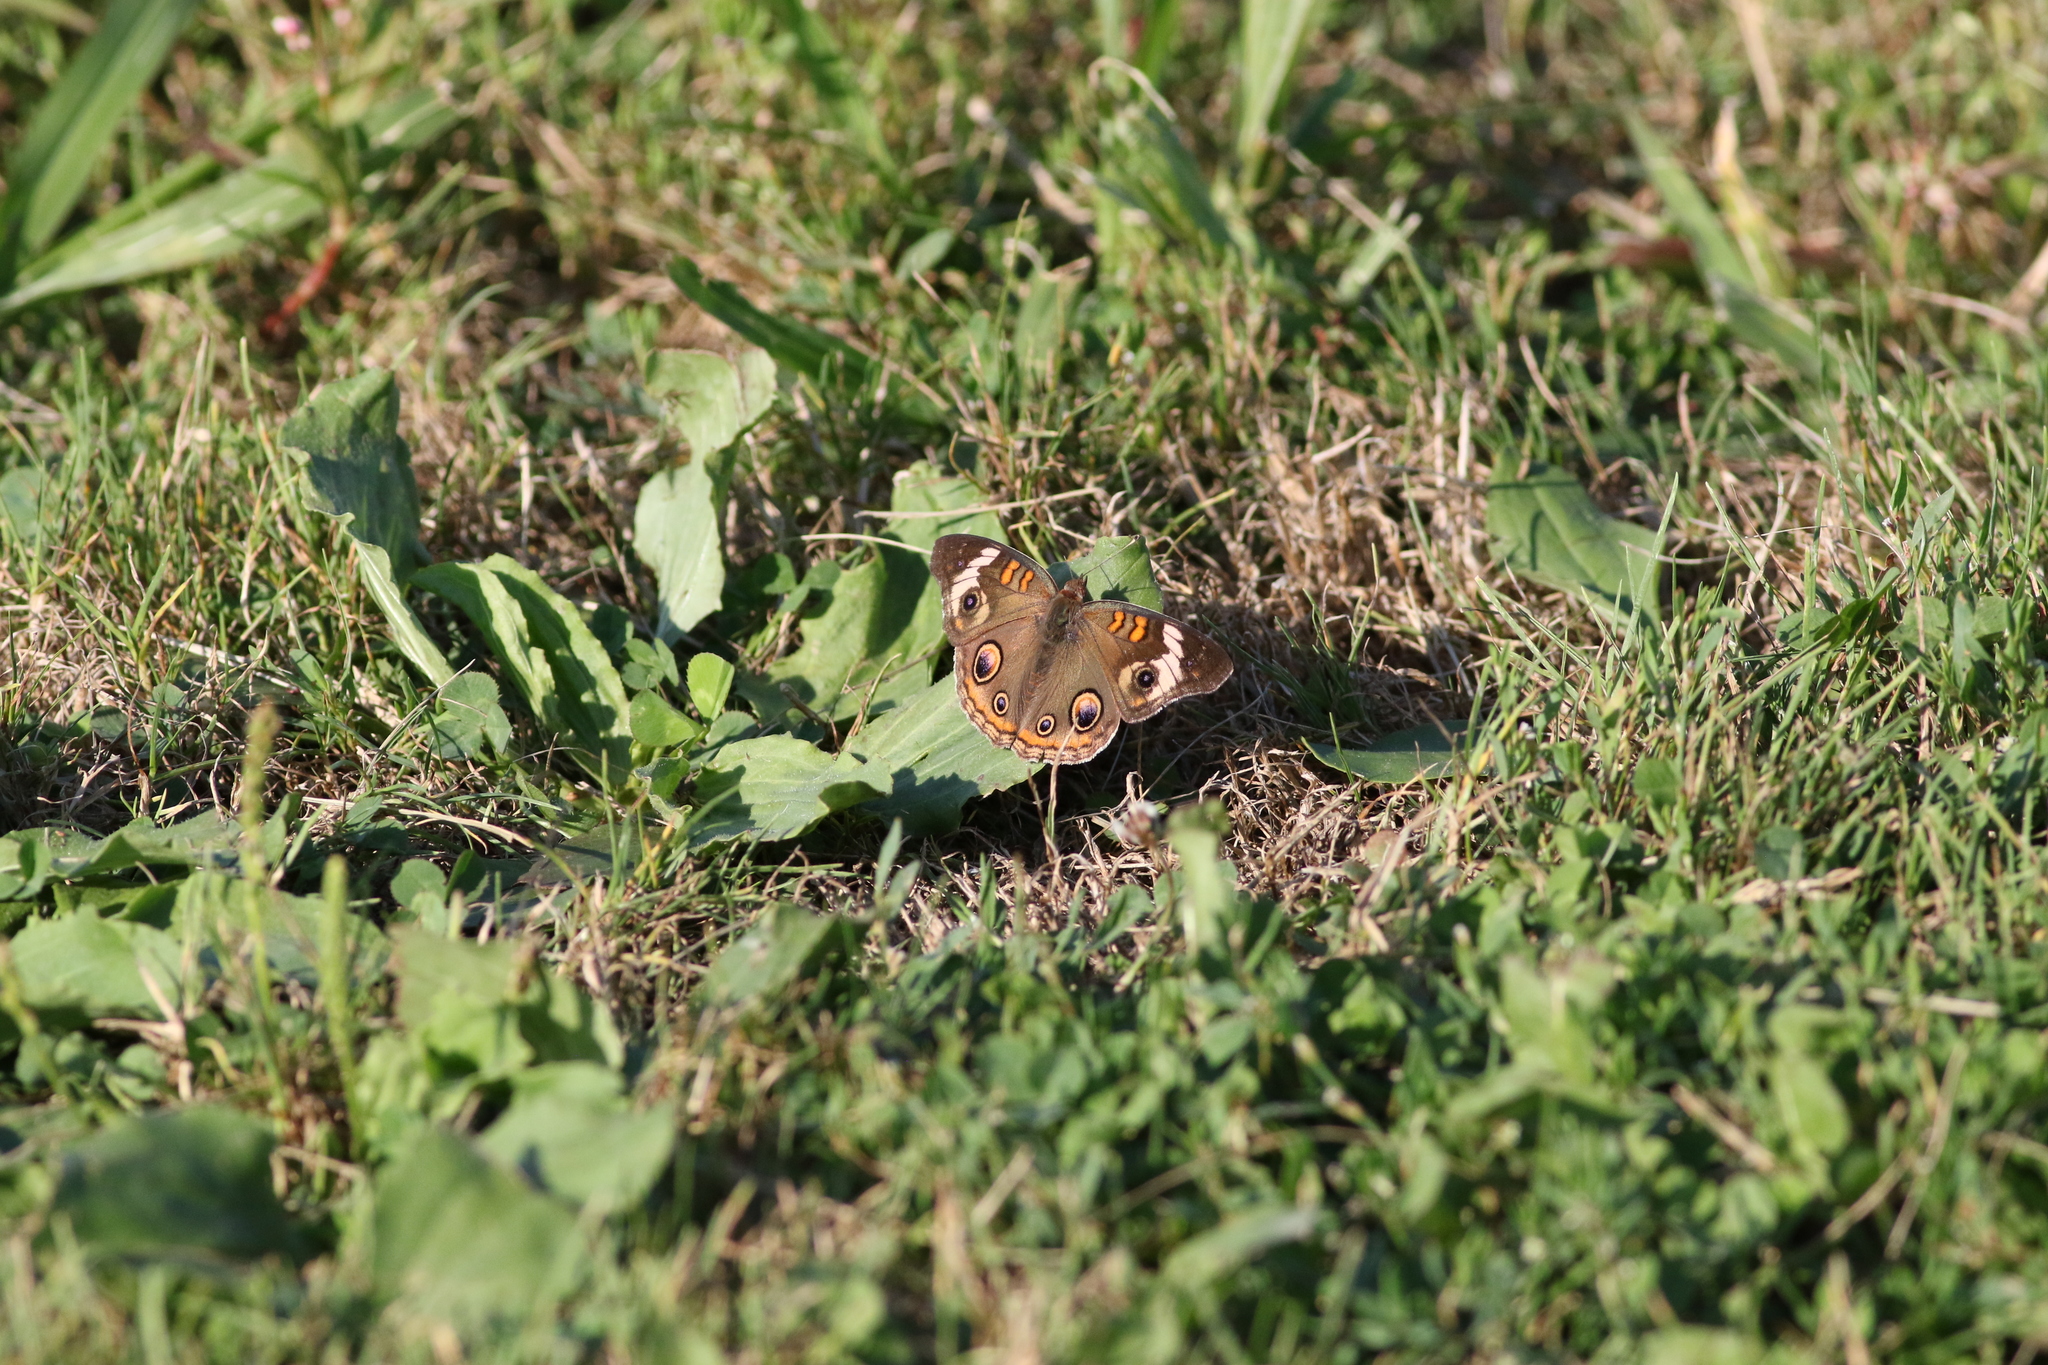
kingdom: Animalia
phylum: Arthropoda
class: Insecta
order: Lepidoptera
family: Nymphalidae
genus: Junonia
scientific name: Junonia coenia
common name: Common buckeye
